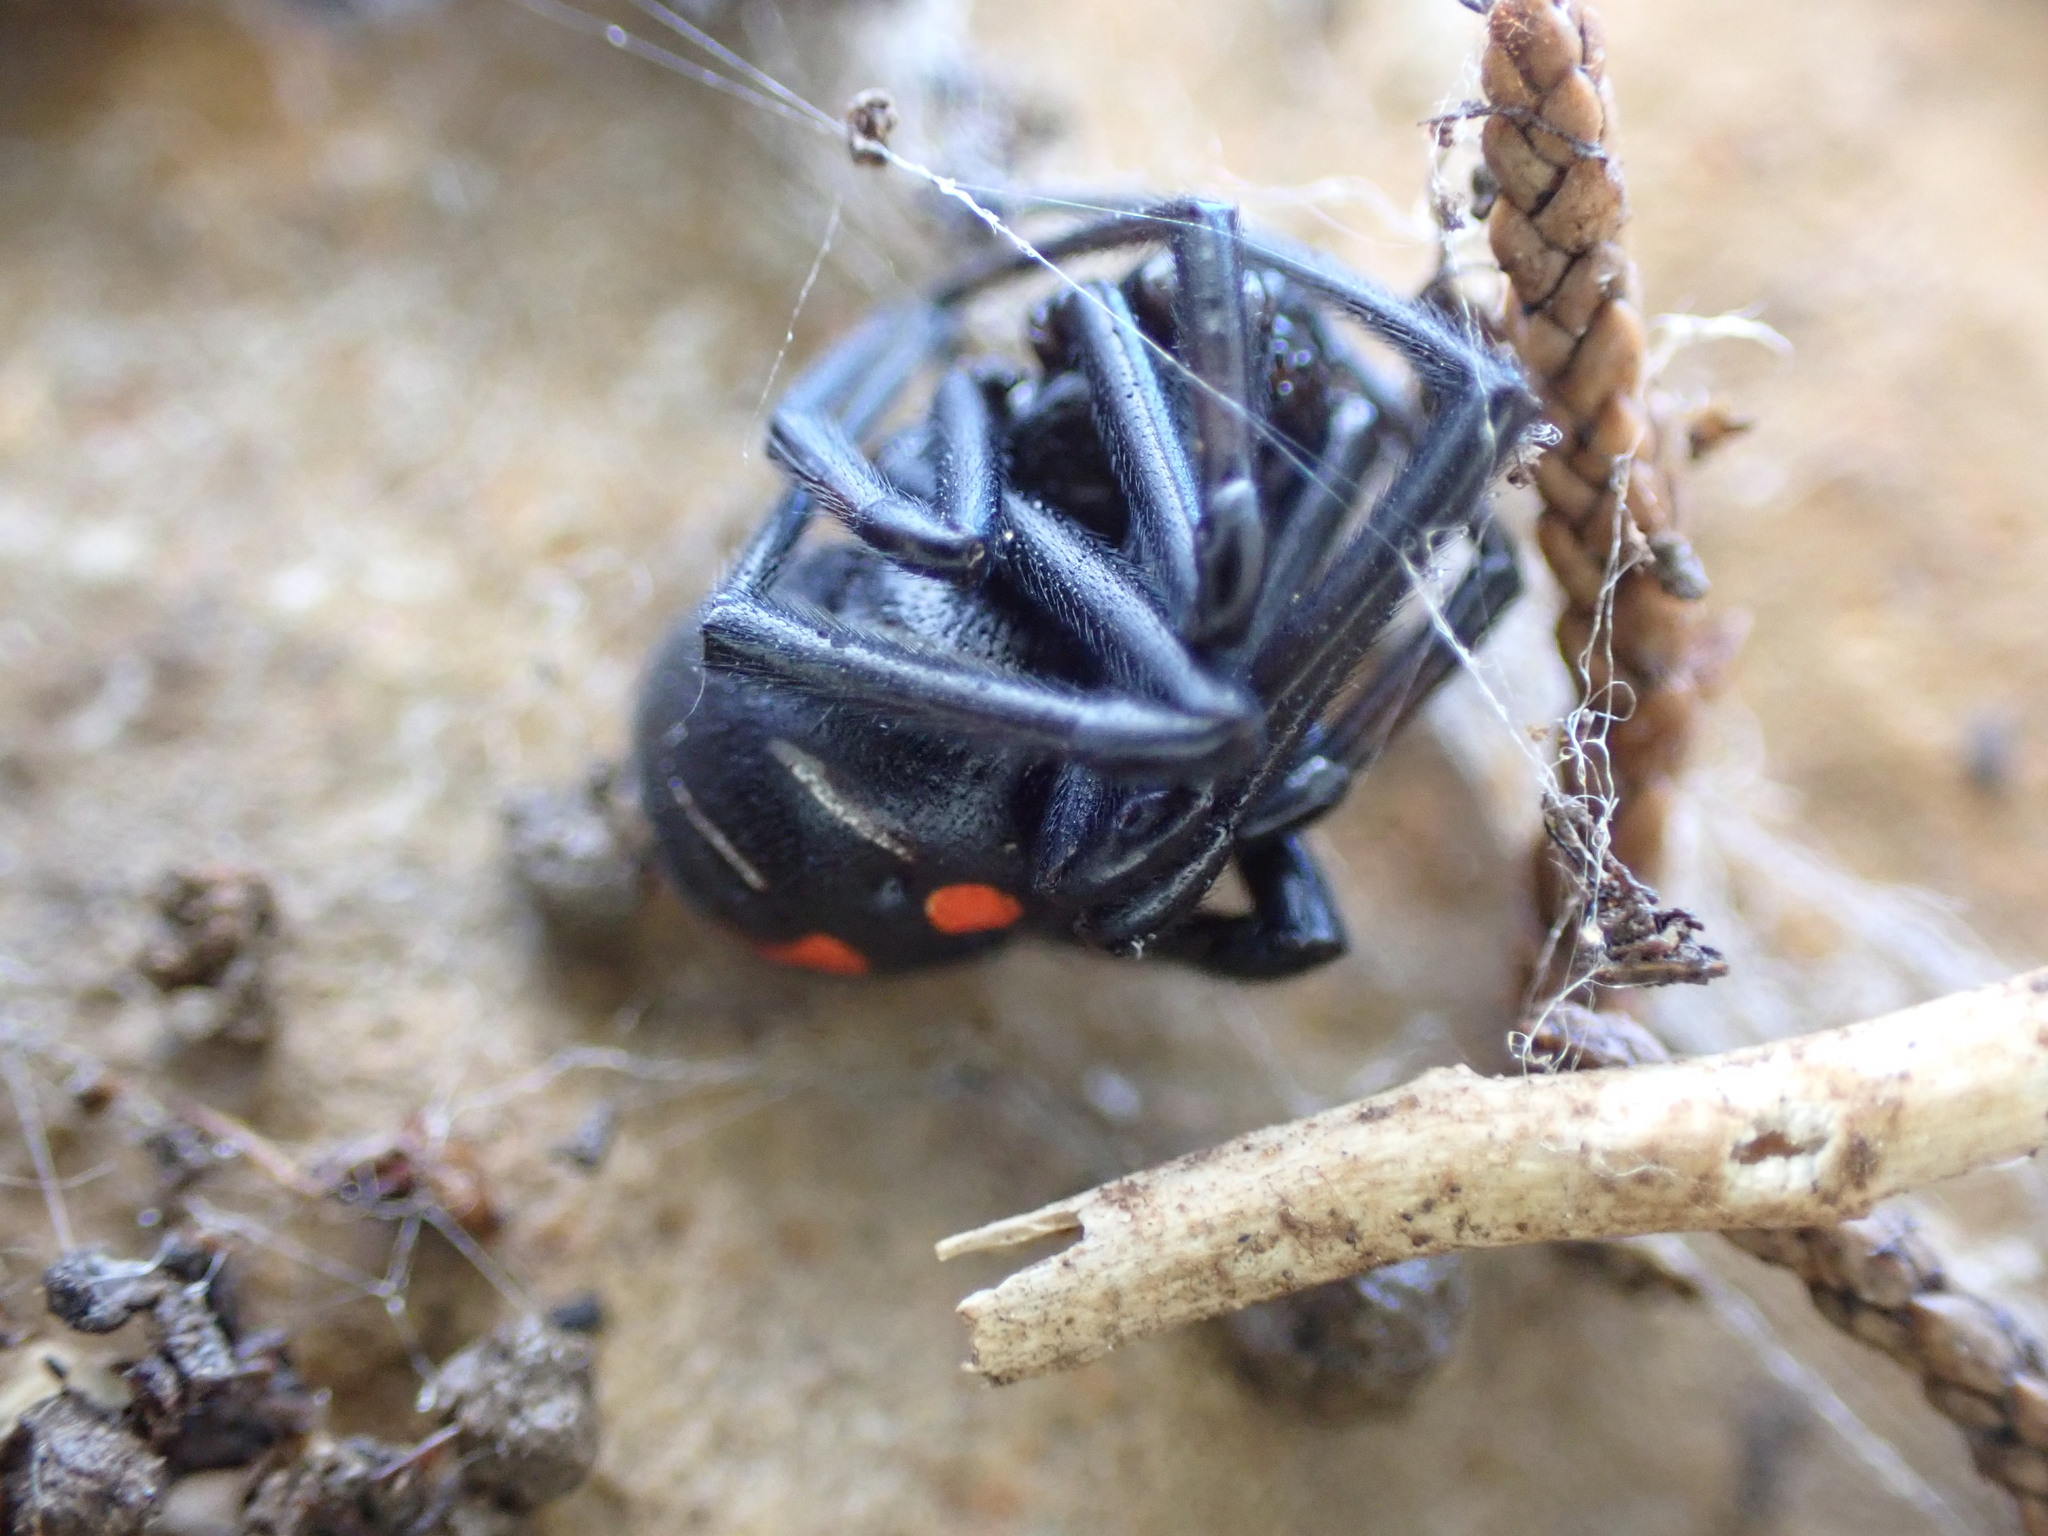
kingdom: Animalia
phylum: Arthropoda
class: Arachnida
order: Araneae
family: Theridiidae
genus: Latrodectus
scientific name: Latrodectus variolus
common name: Northern black widow
